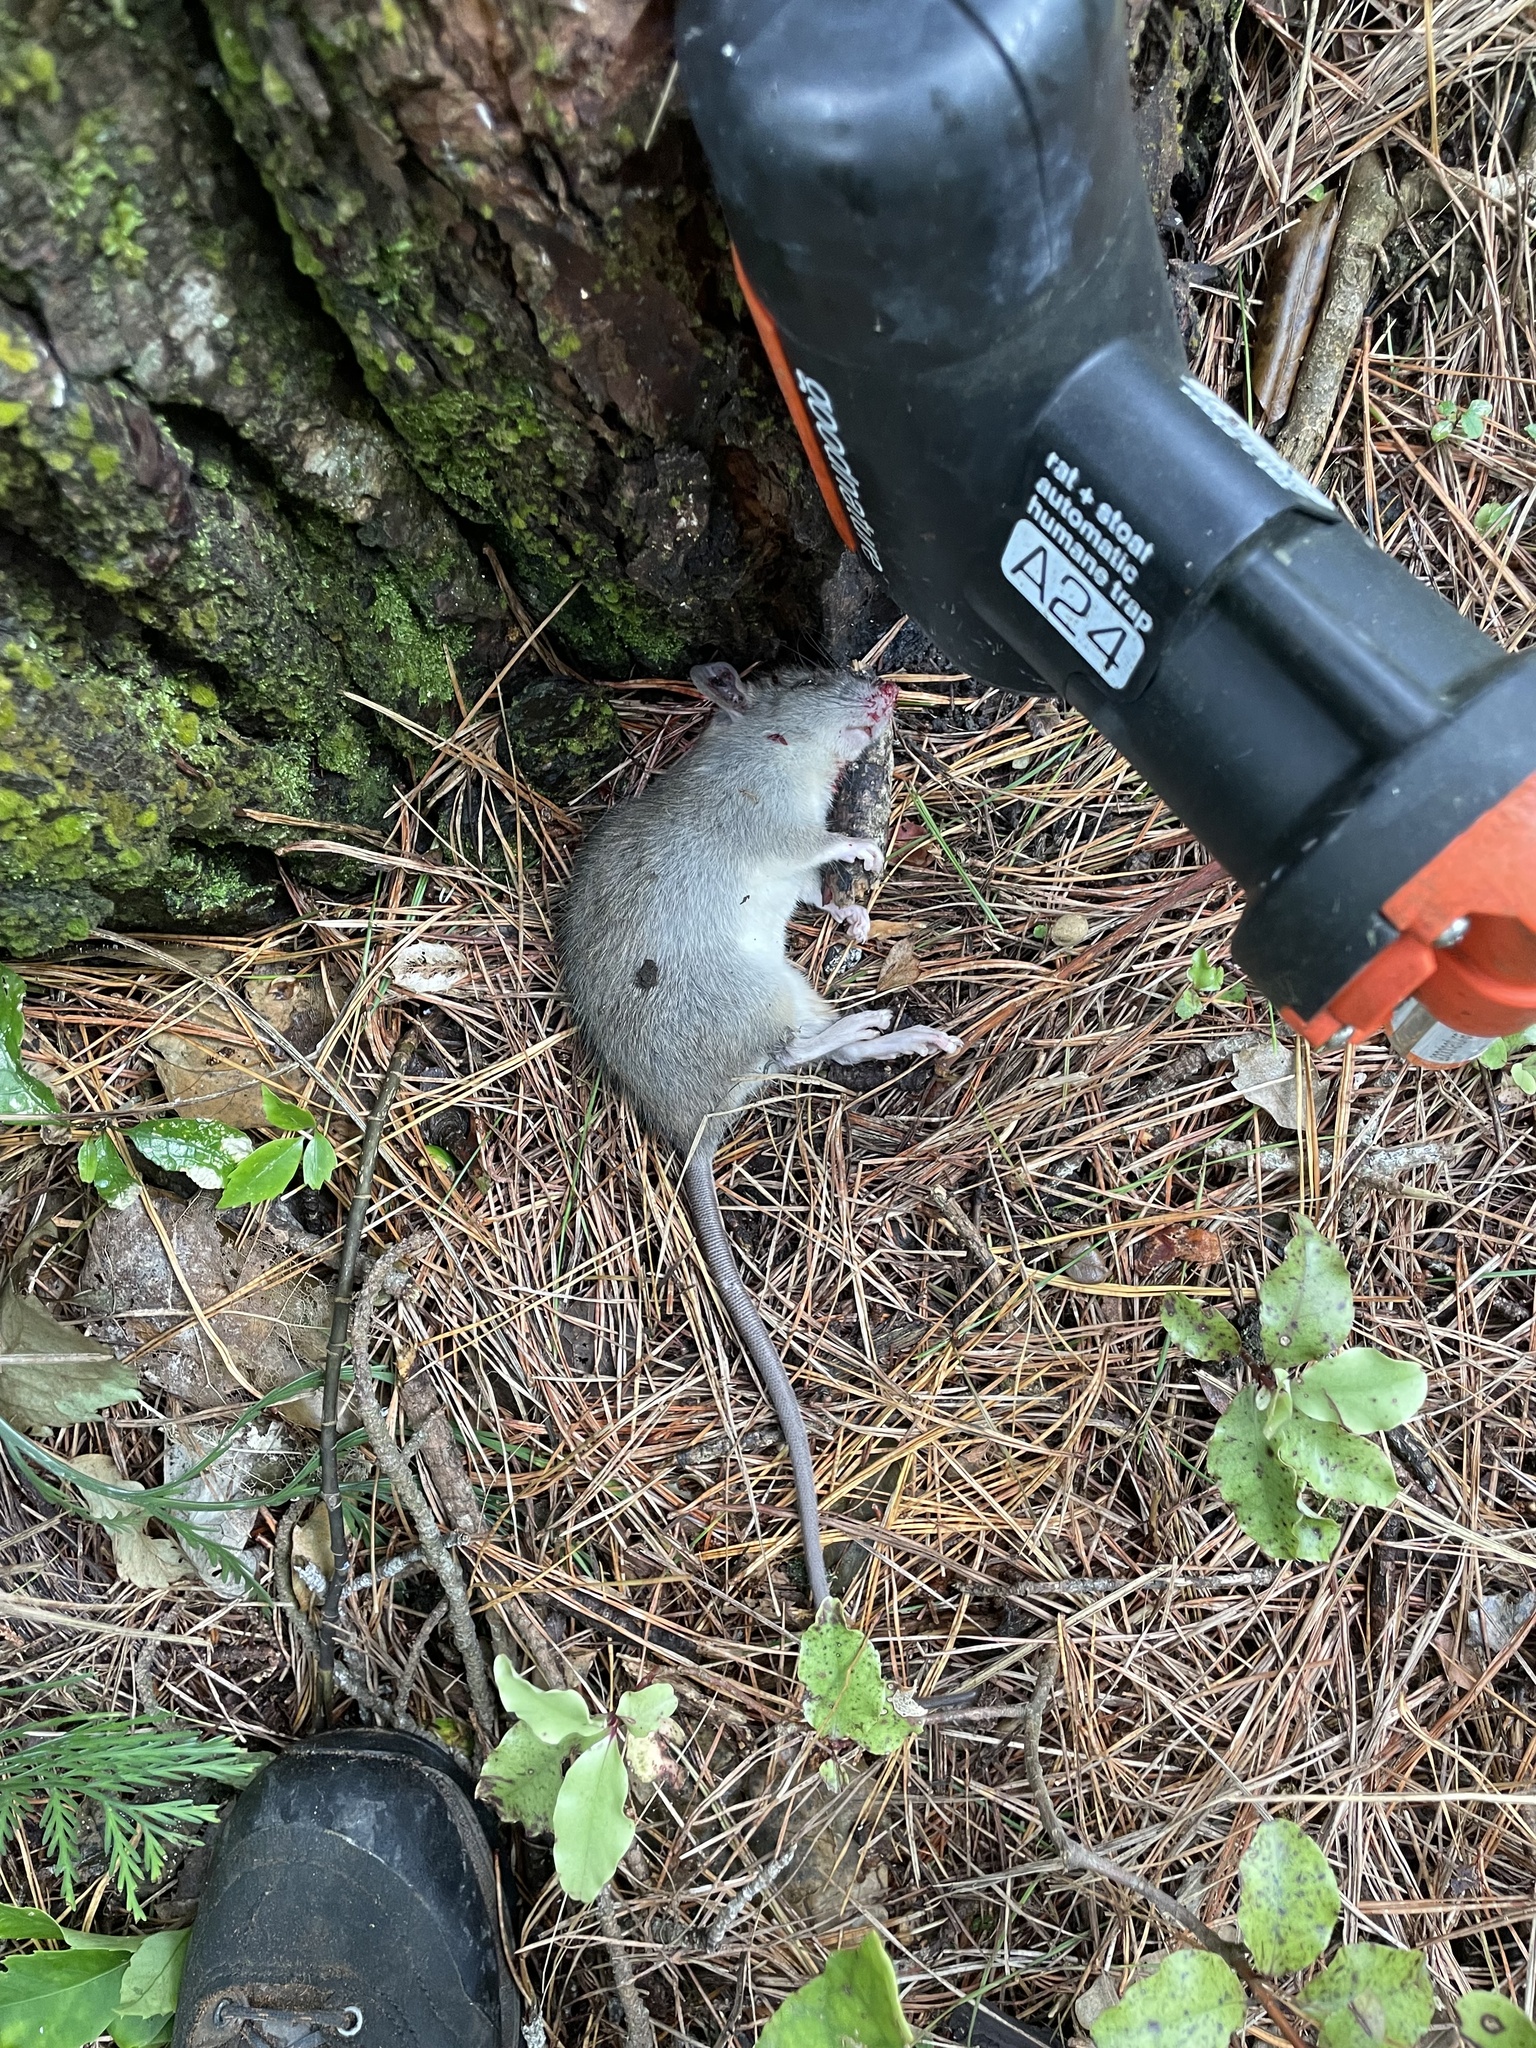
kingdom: Animalia
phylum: Chordata
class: Mammalia
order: Rodentia
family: Muridae
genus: Rattus
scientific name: Rattus rattus
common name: Black rat
